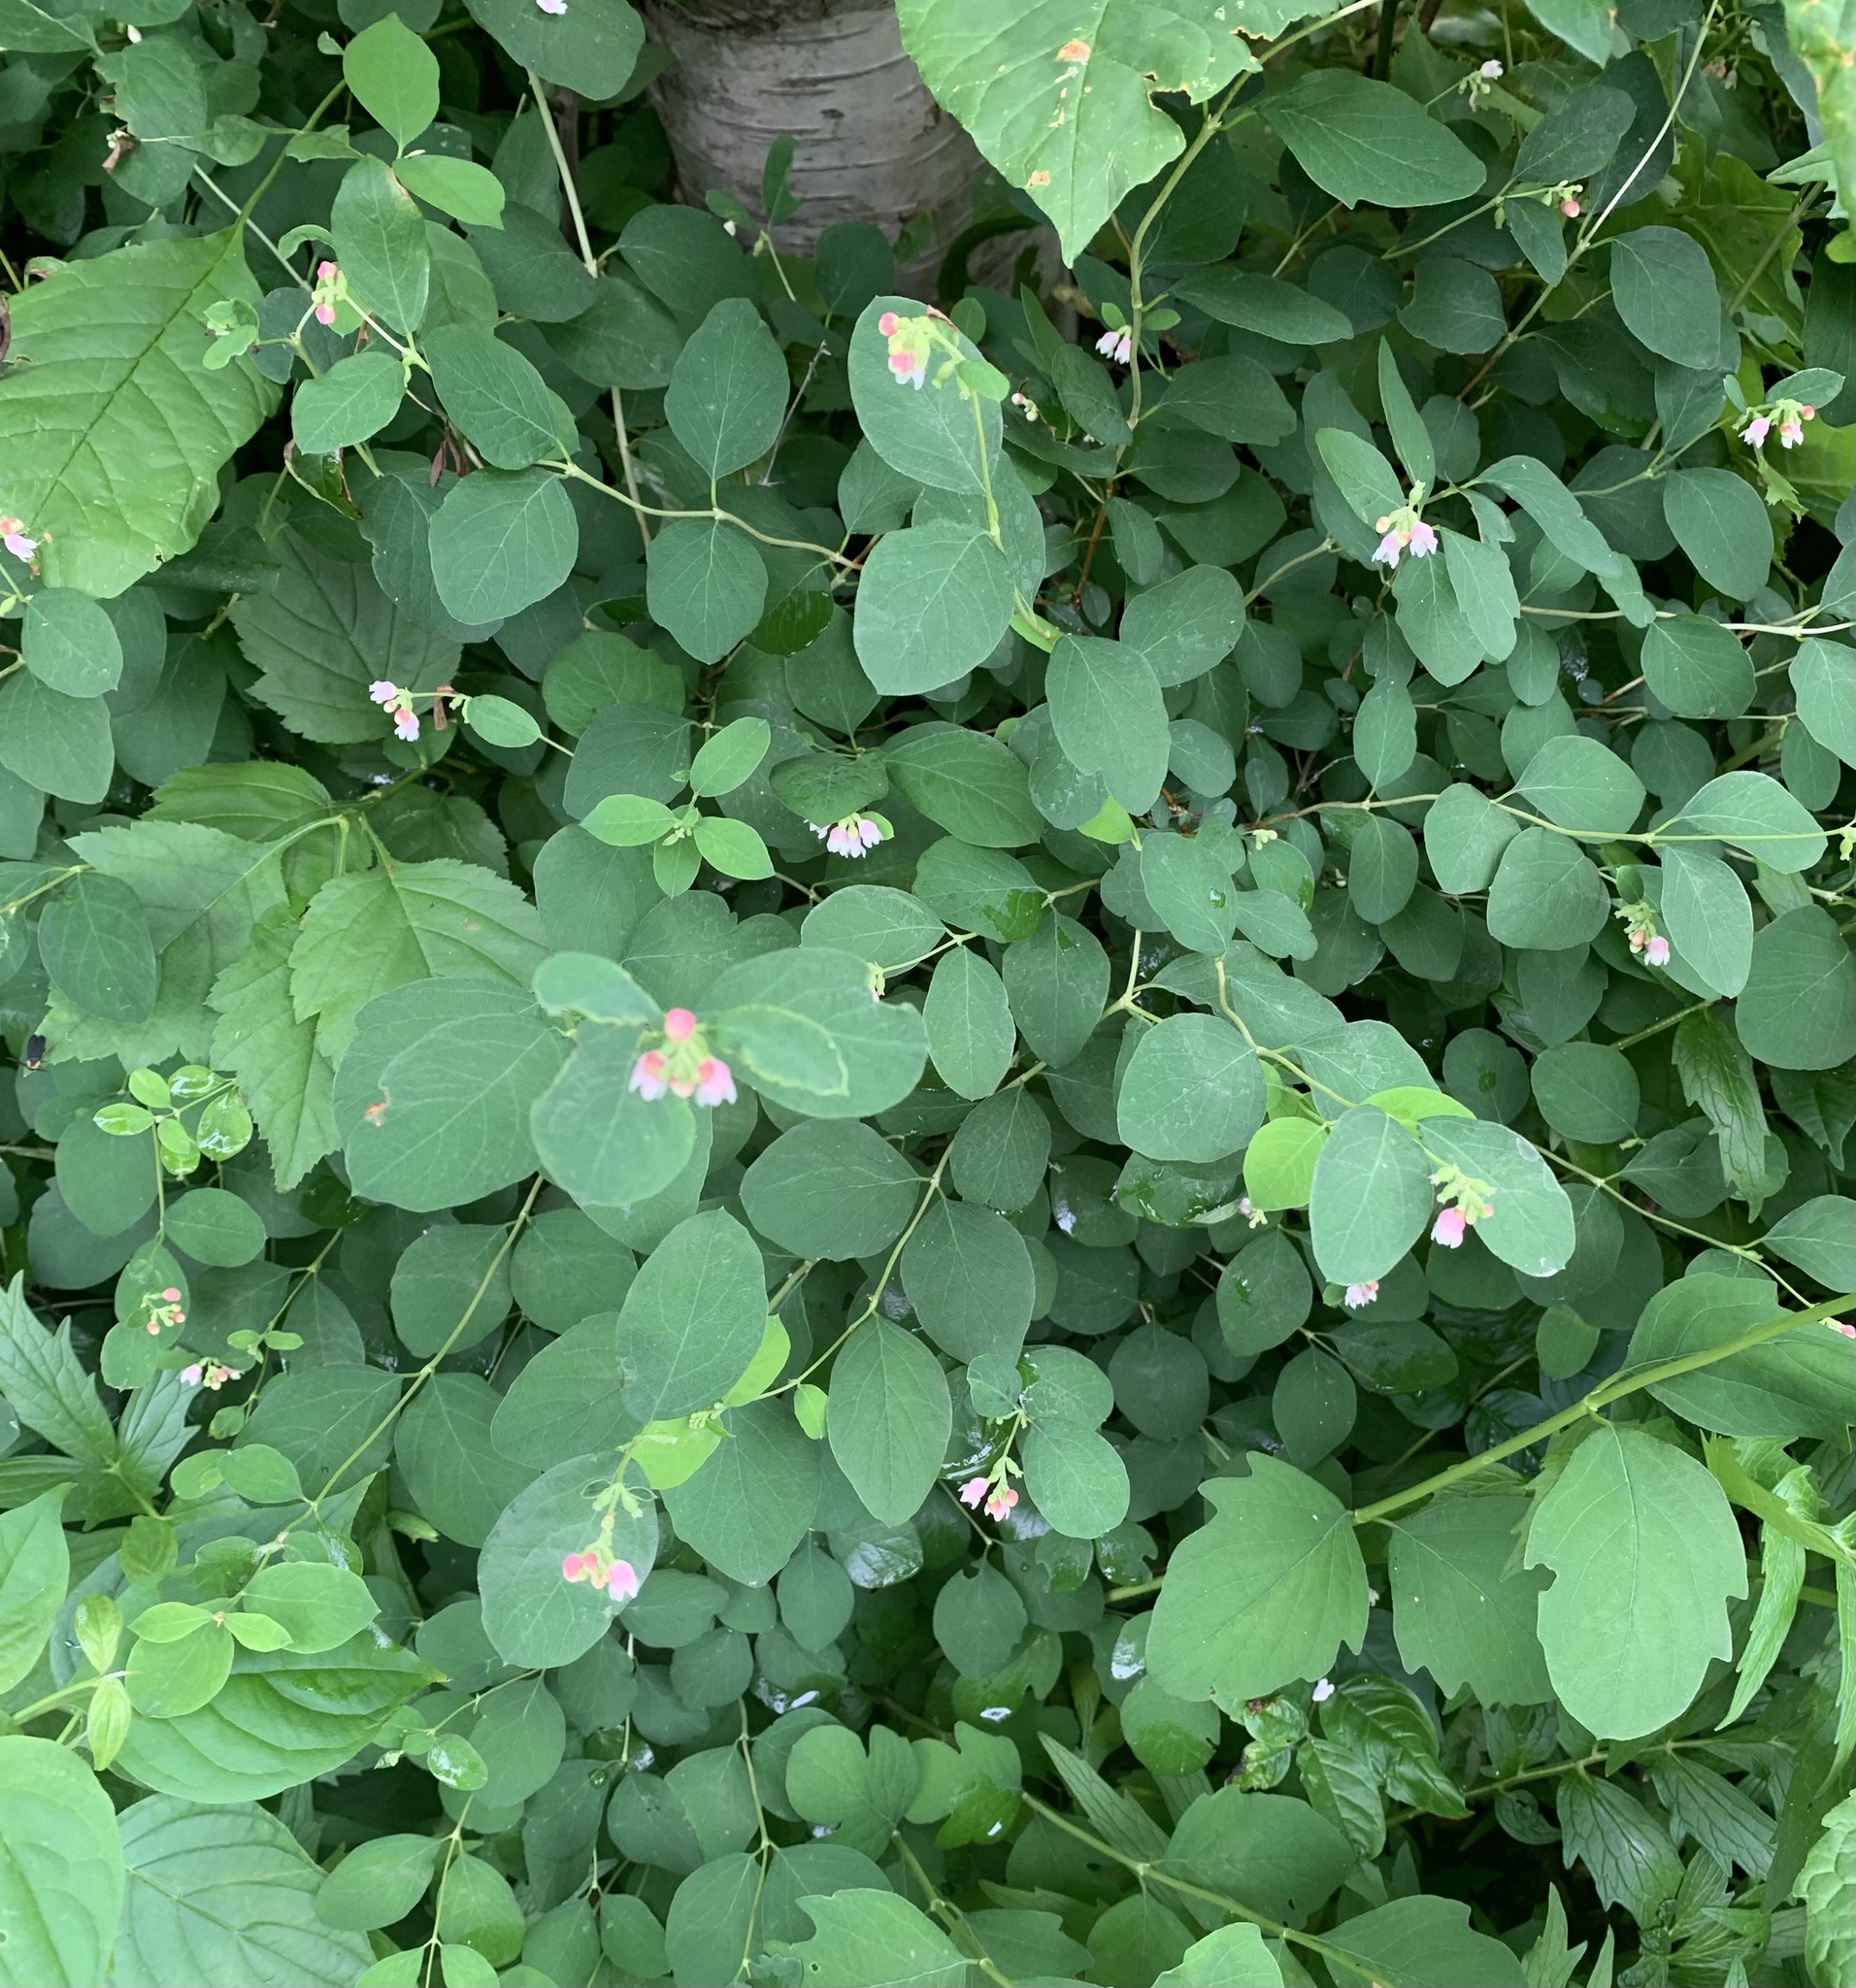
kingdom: Plantae
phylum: Tracheophyta
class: Magnoliopsida
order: Gentianales
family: Apocynaceae
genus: Apocynum
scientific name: Apocynum androsaemifolium
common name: Spreading dogbane
